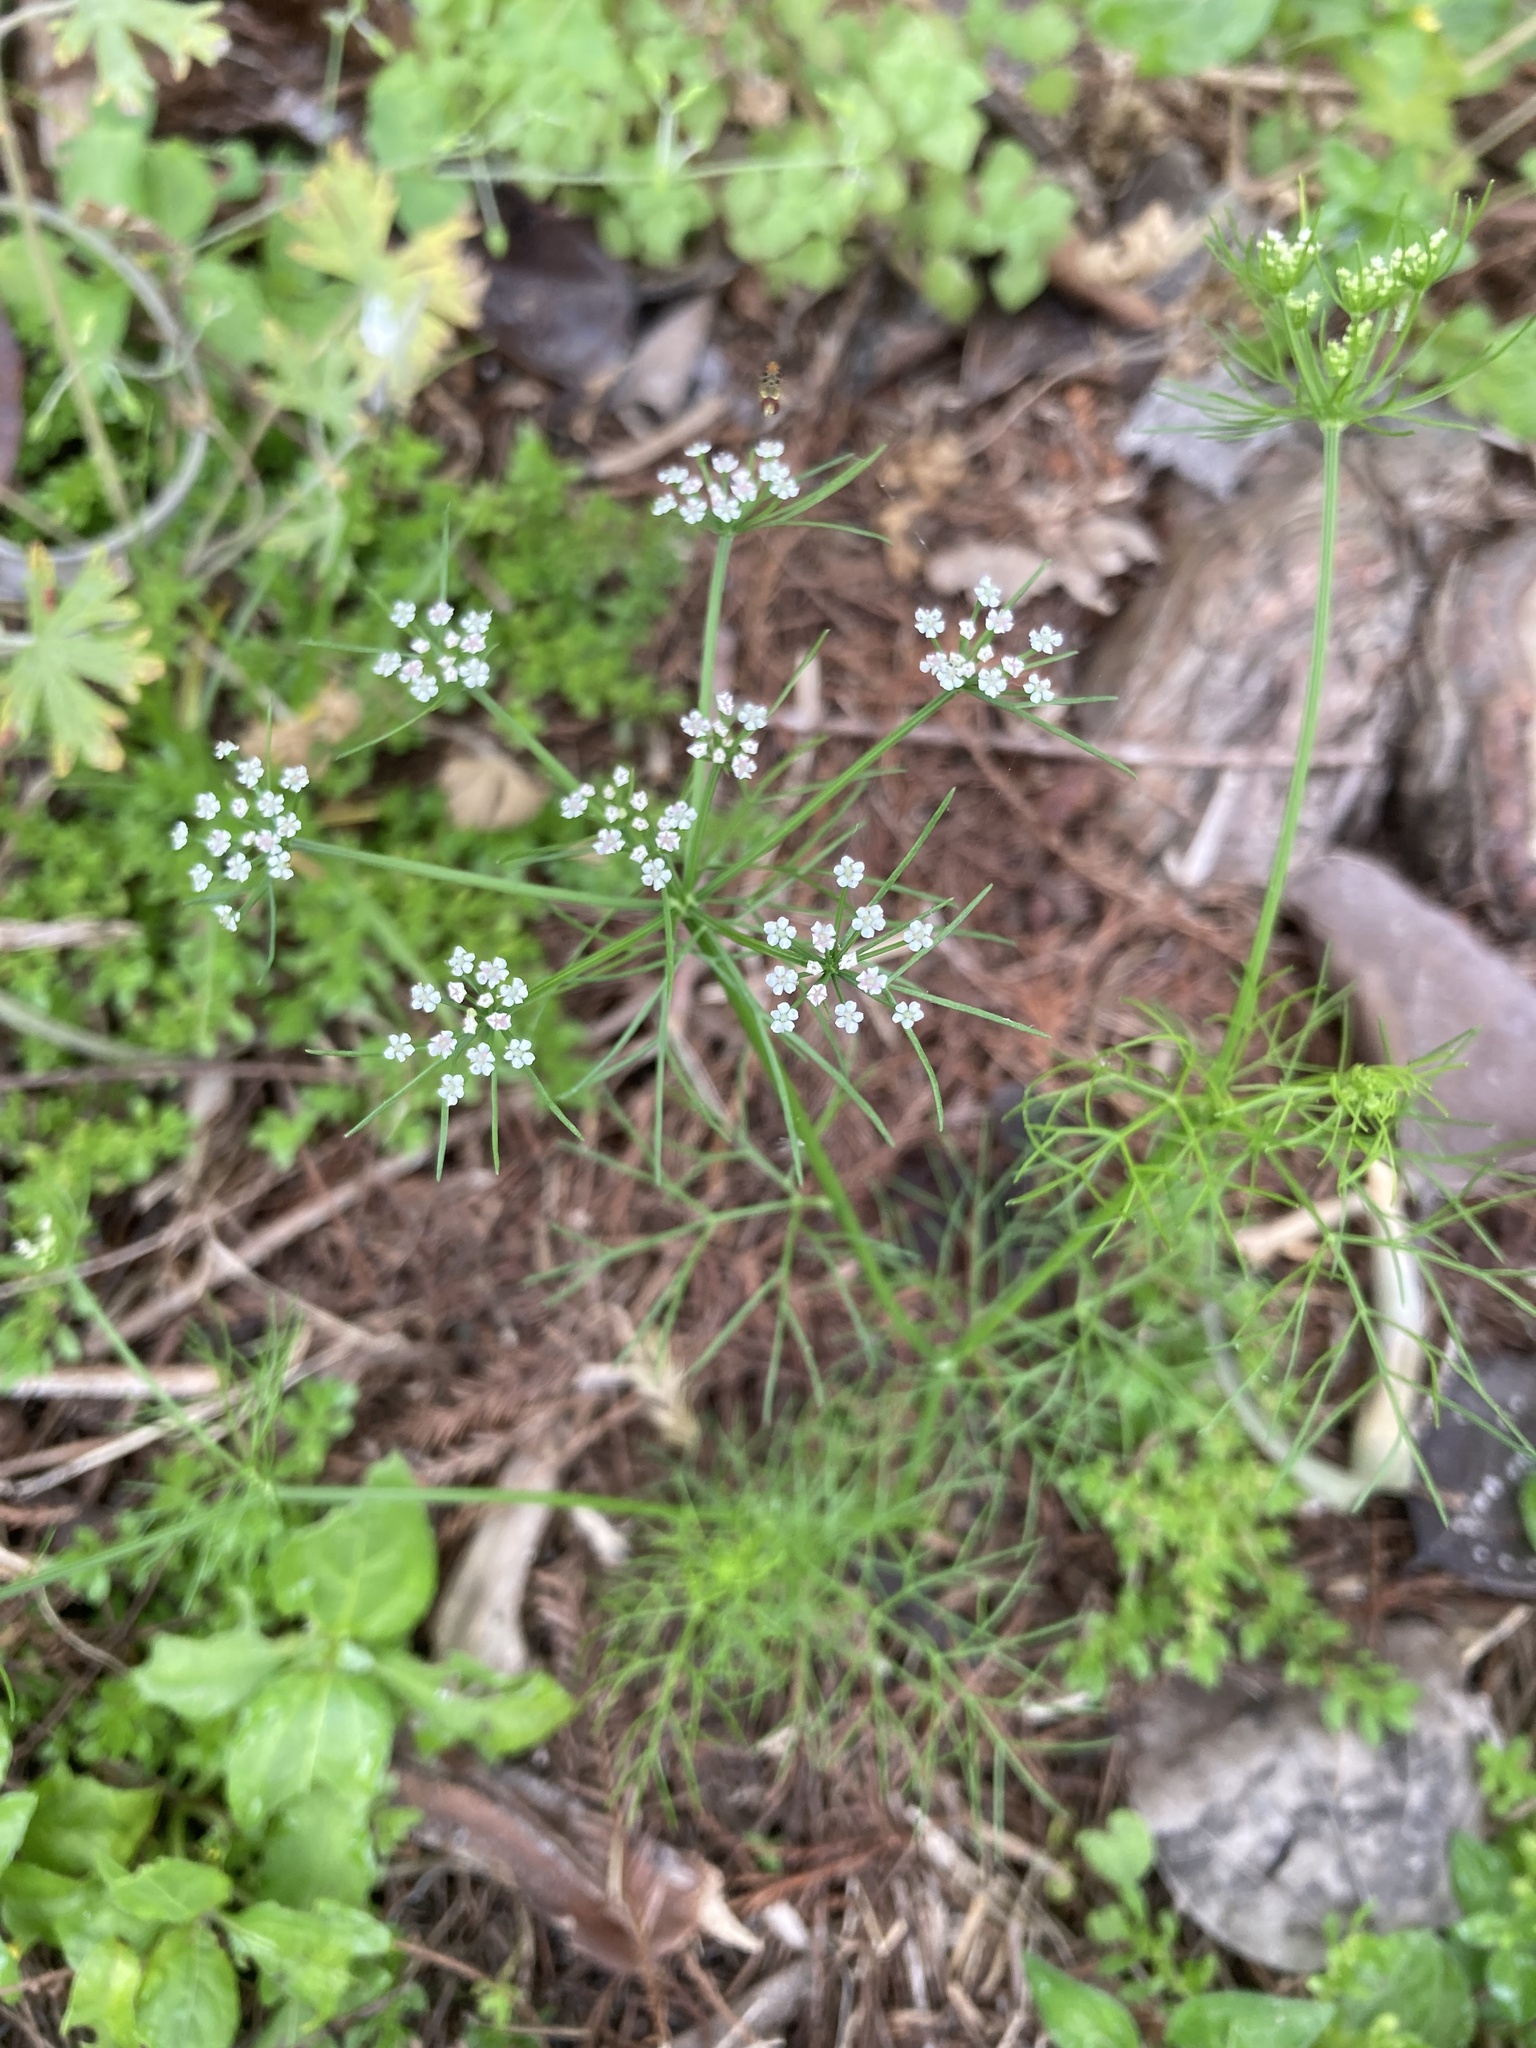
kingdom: Plantae
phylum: Tracheophyta
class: Magnoliopsida
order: Apiales
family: Apiaceae
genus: Ptilimnium
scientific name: Ptilimnium capillaceum
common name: Herbwilliam
